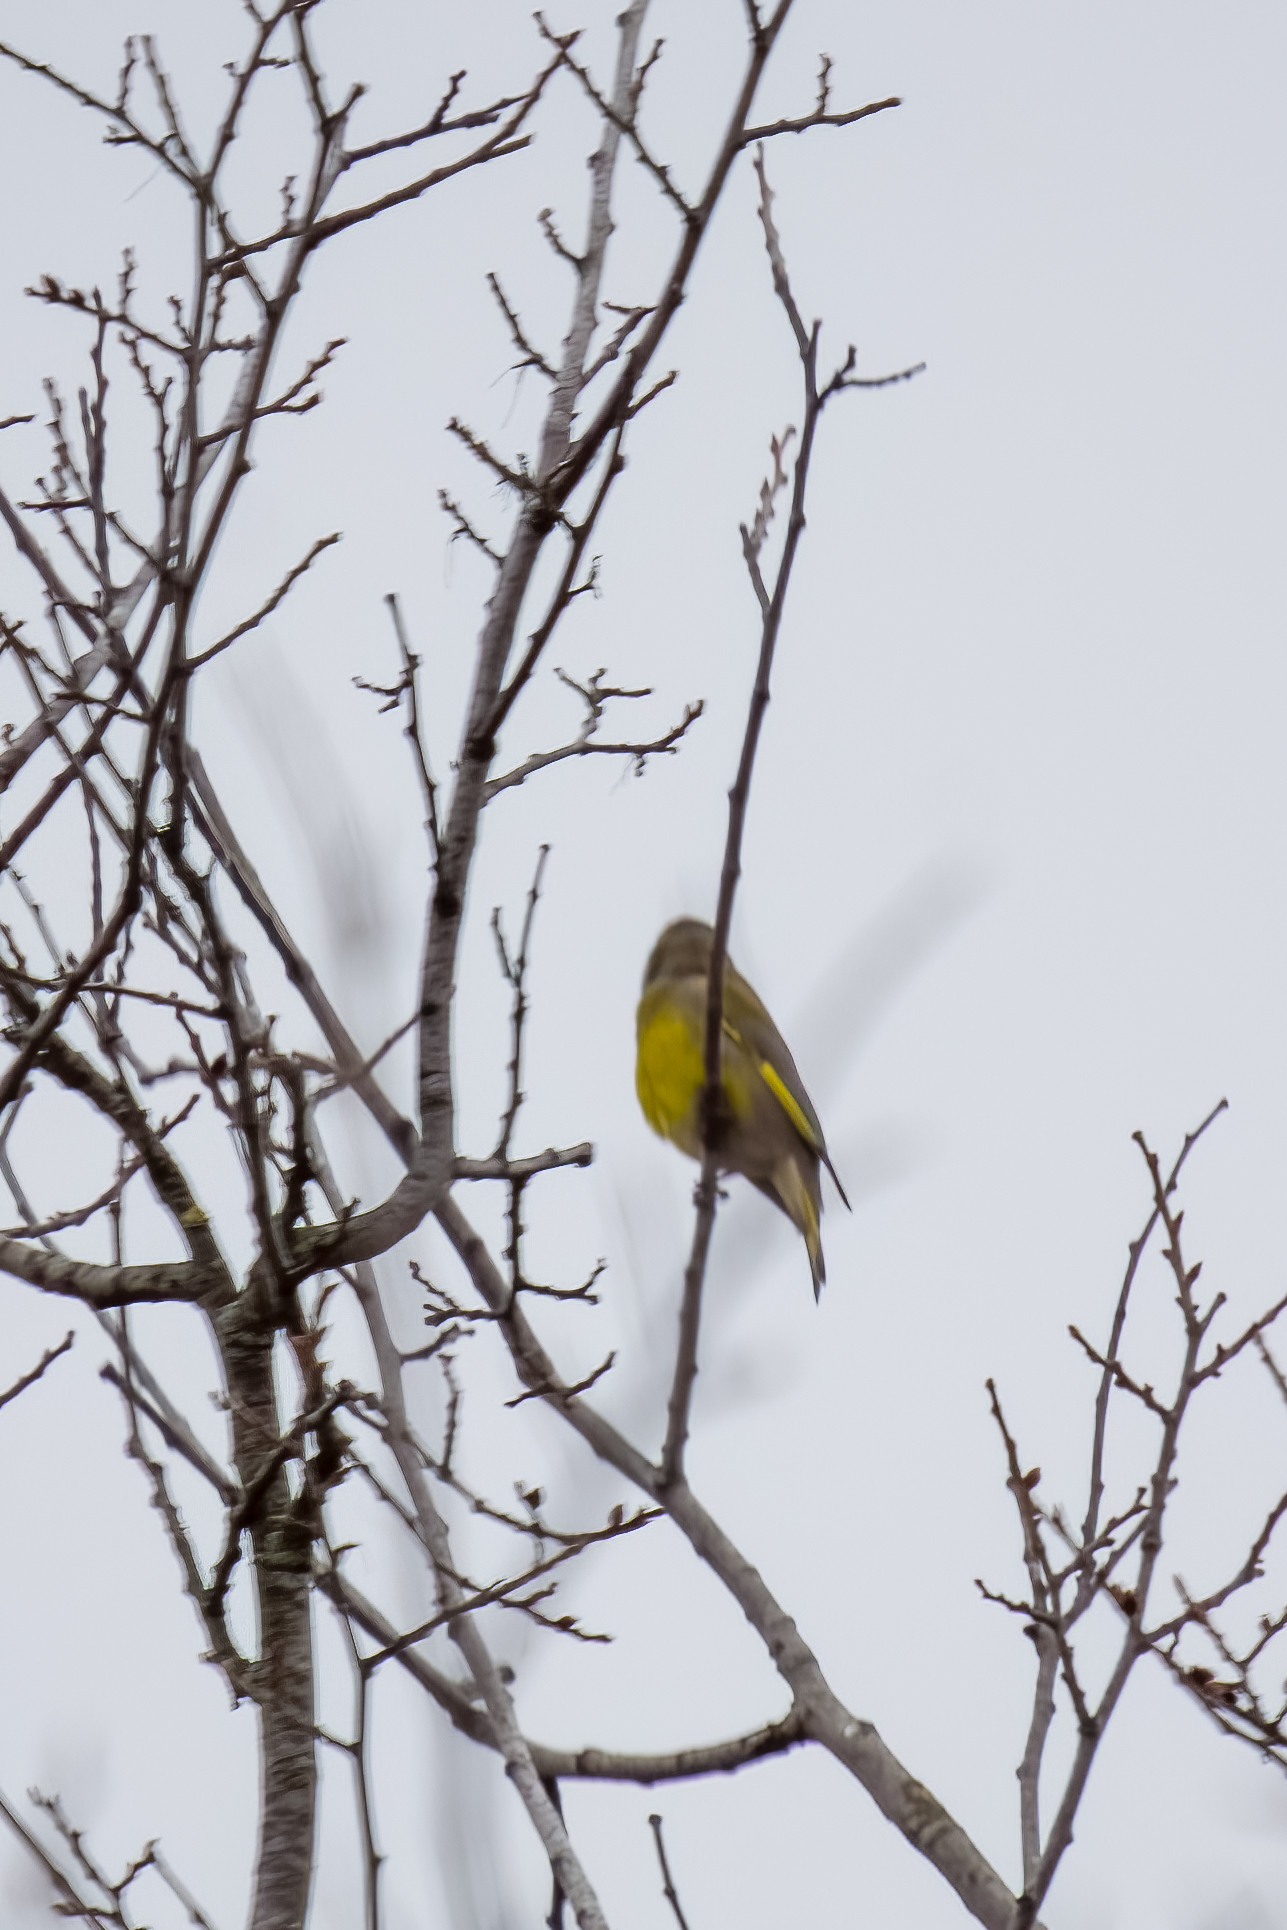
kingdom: Plantae
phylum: Tracheophyta
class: Liliopsida
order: Poales
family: Poaceae
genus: Chloris
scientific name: Chloris chloris
